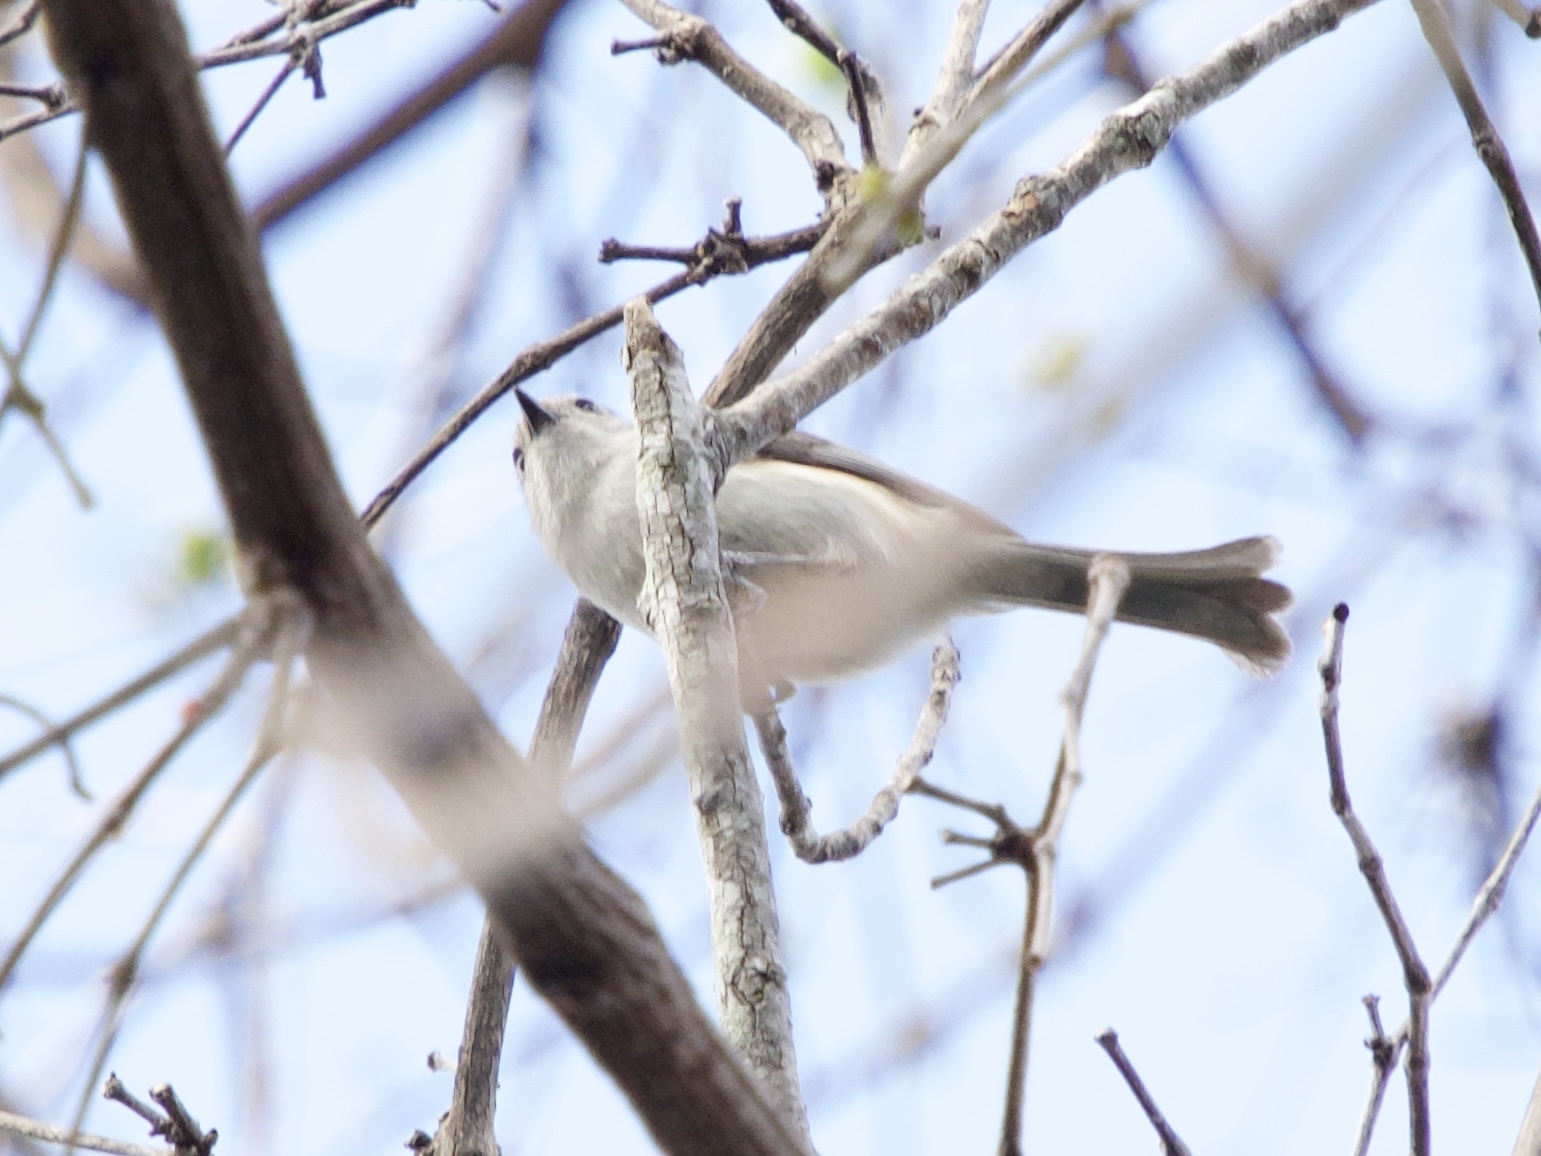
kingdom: Animalia
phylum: Chordata
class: Aves
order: Passeriformes
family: Paridae
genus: Baeolophus
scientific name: Baeolophus atricristatus
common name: Black-crested titmouse
